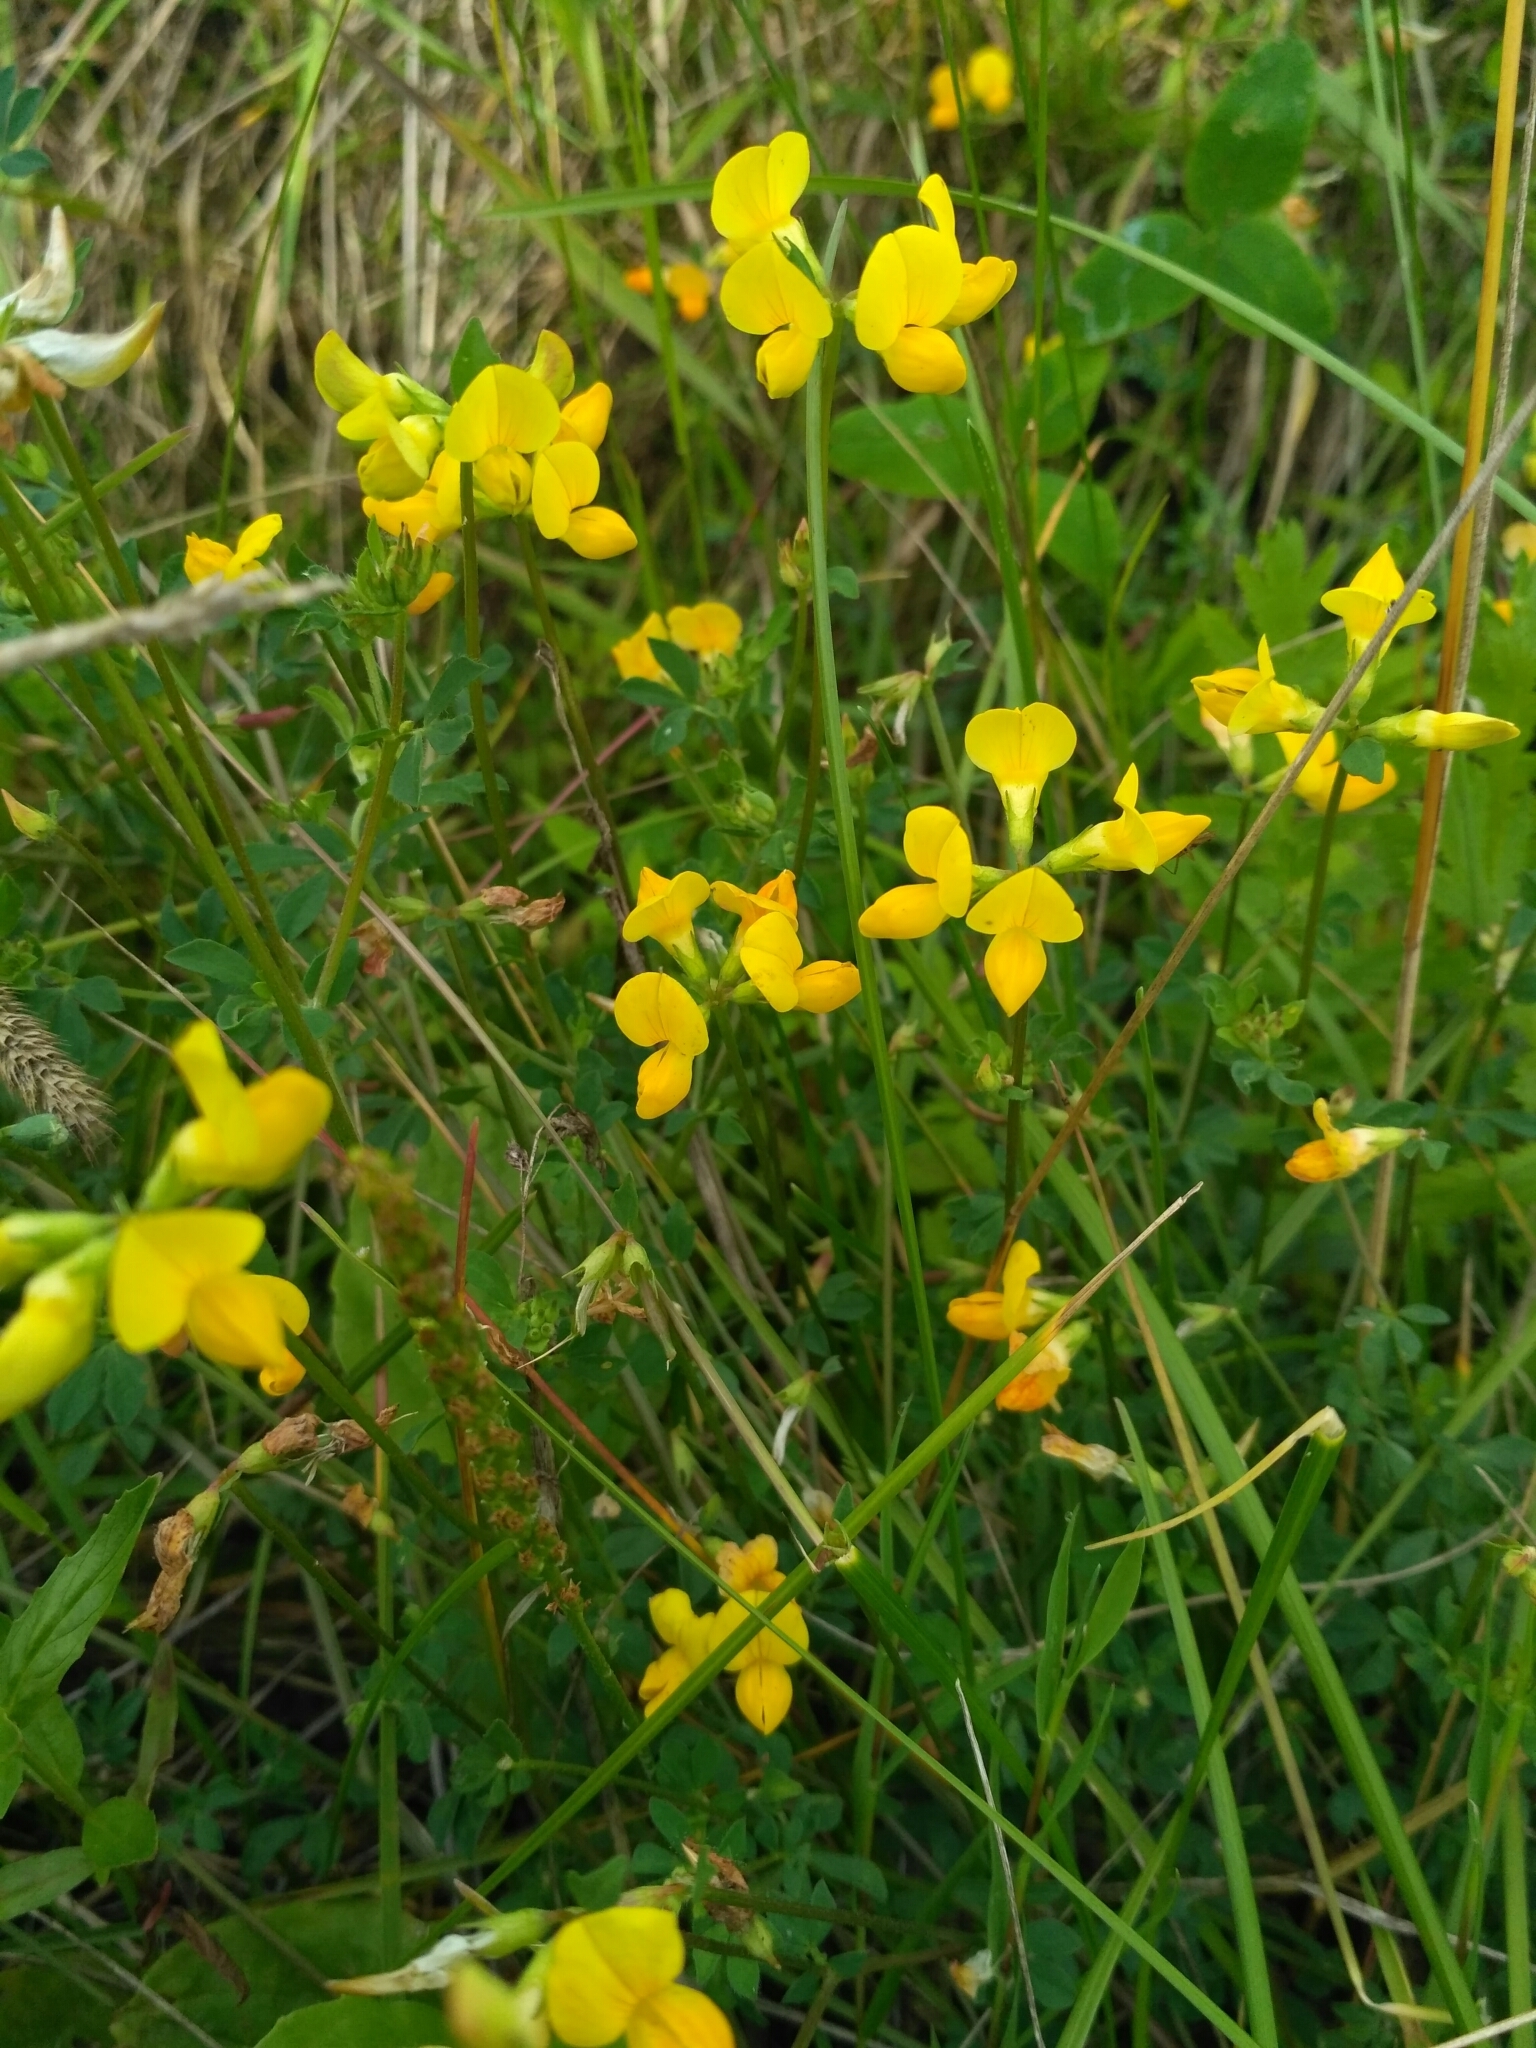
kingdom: Plantae
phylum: Tracheophyta
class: Magnoliopsida
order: Fabales
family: Fabaceae
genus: Lotus
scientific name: Lotus corniculatus
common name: Common bird's-foot-trefoil
